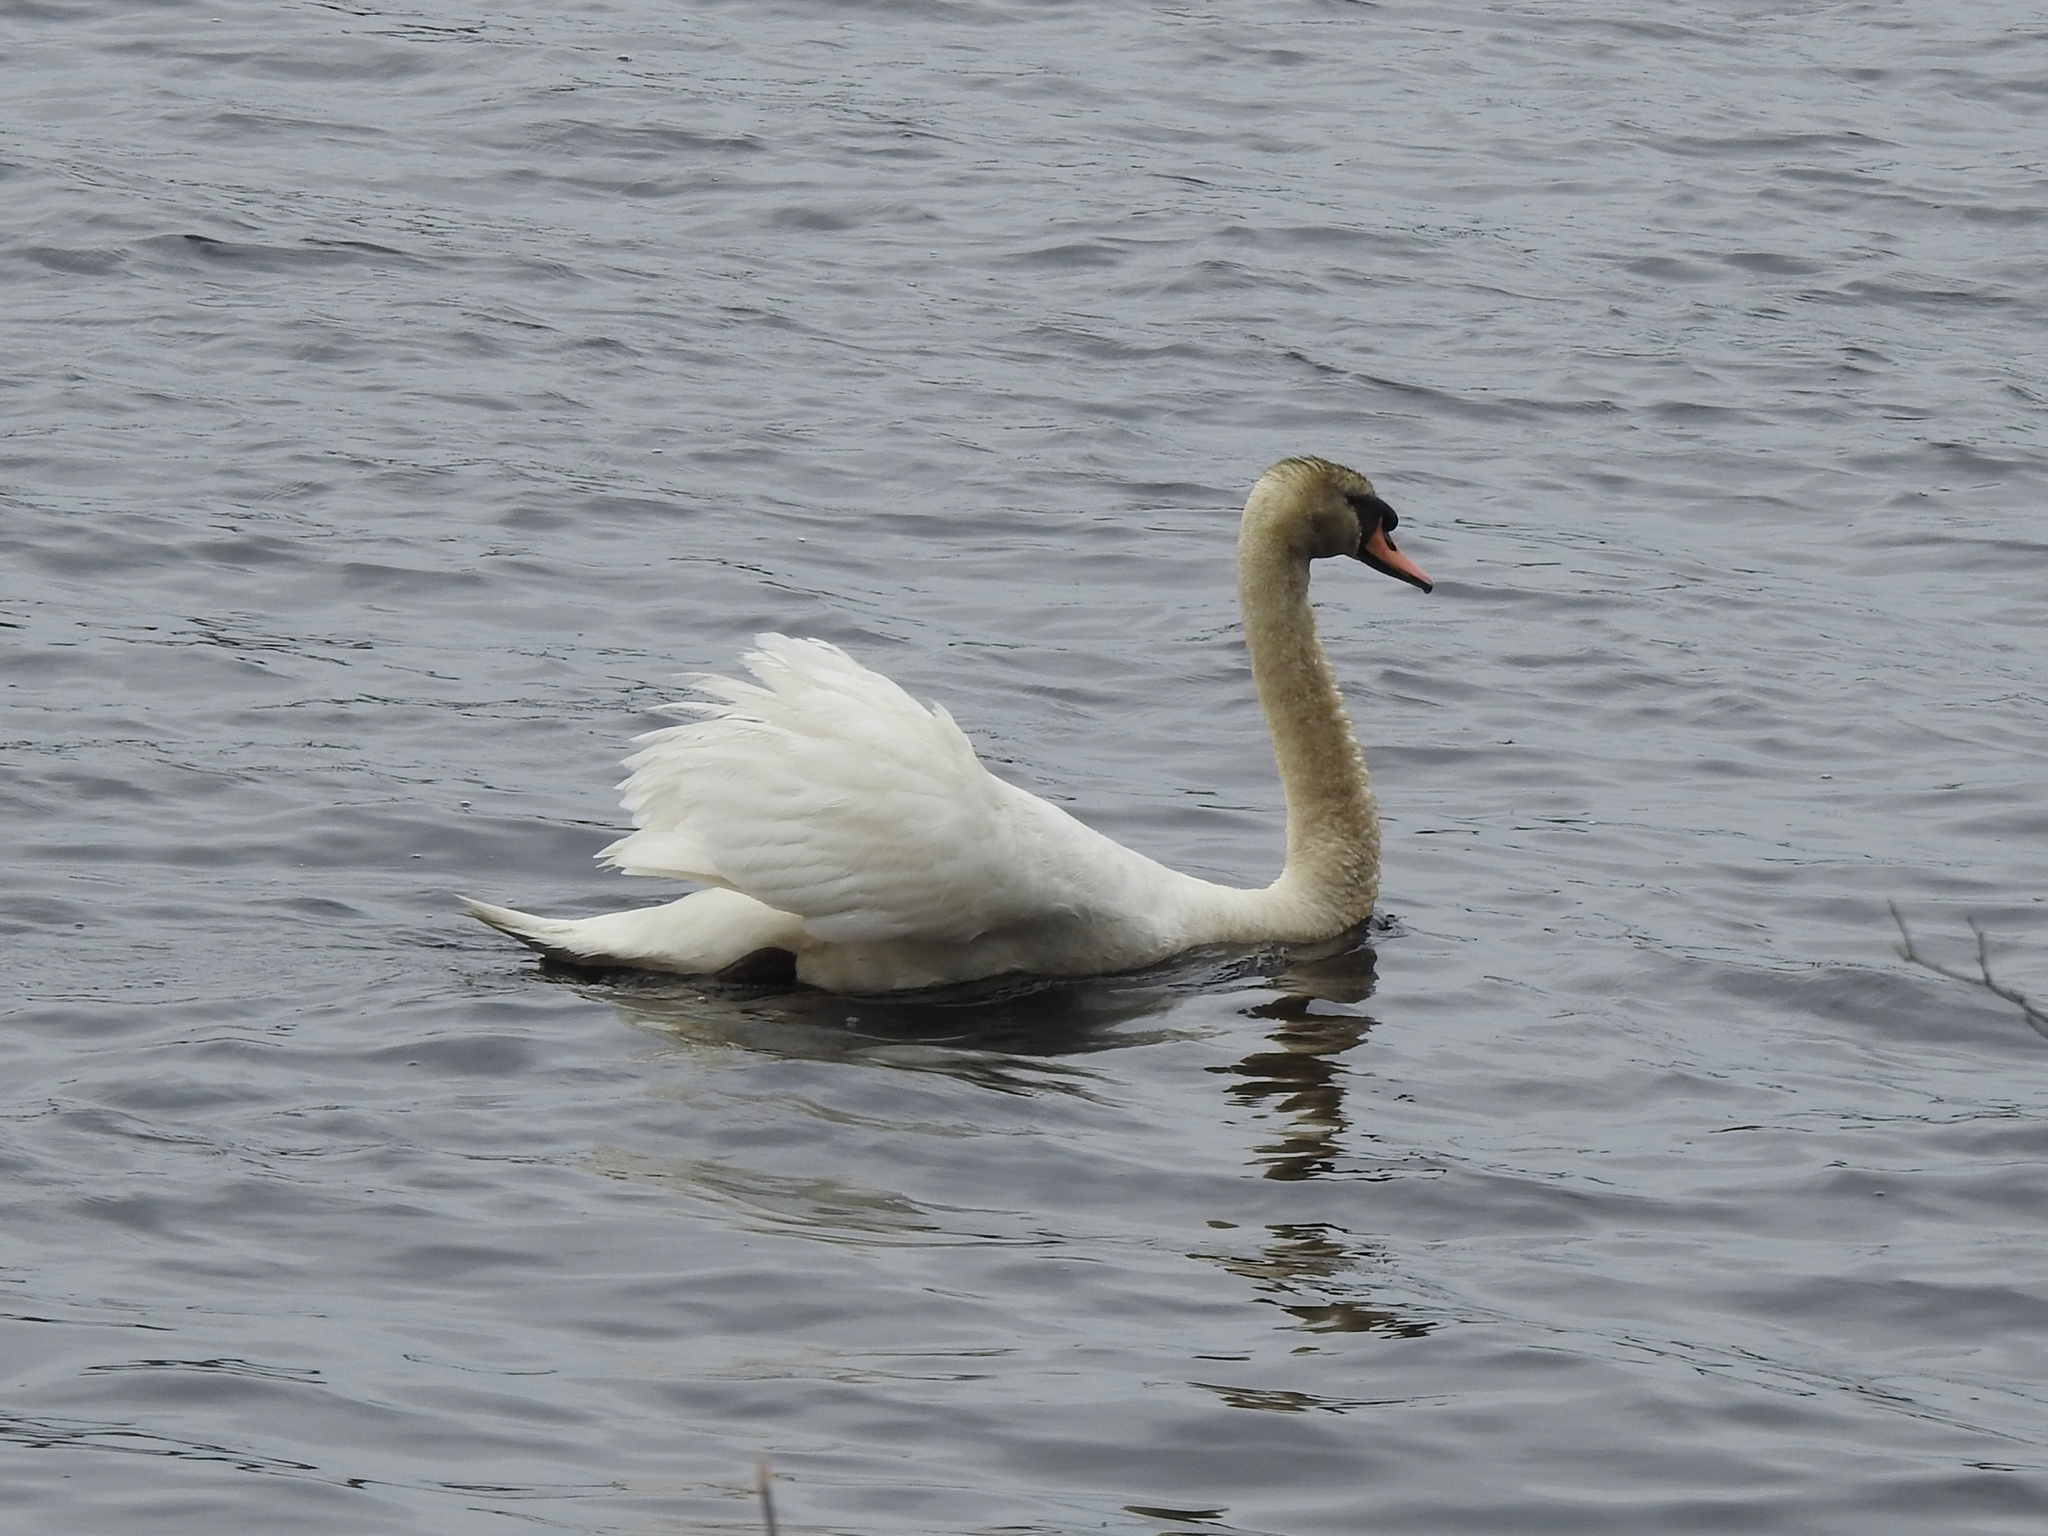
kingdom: Animalia
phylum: Chordata
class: Aves
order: Anseriformes
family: Anatidae
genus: Cygnus
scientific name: Cygnus olor
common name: Mute swan
